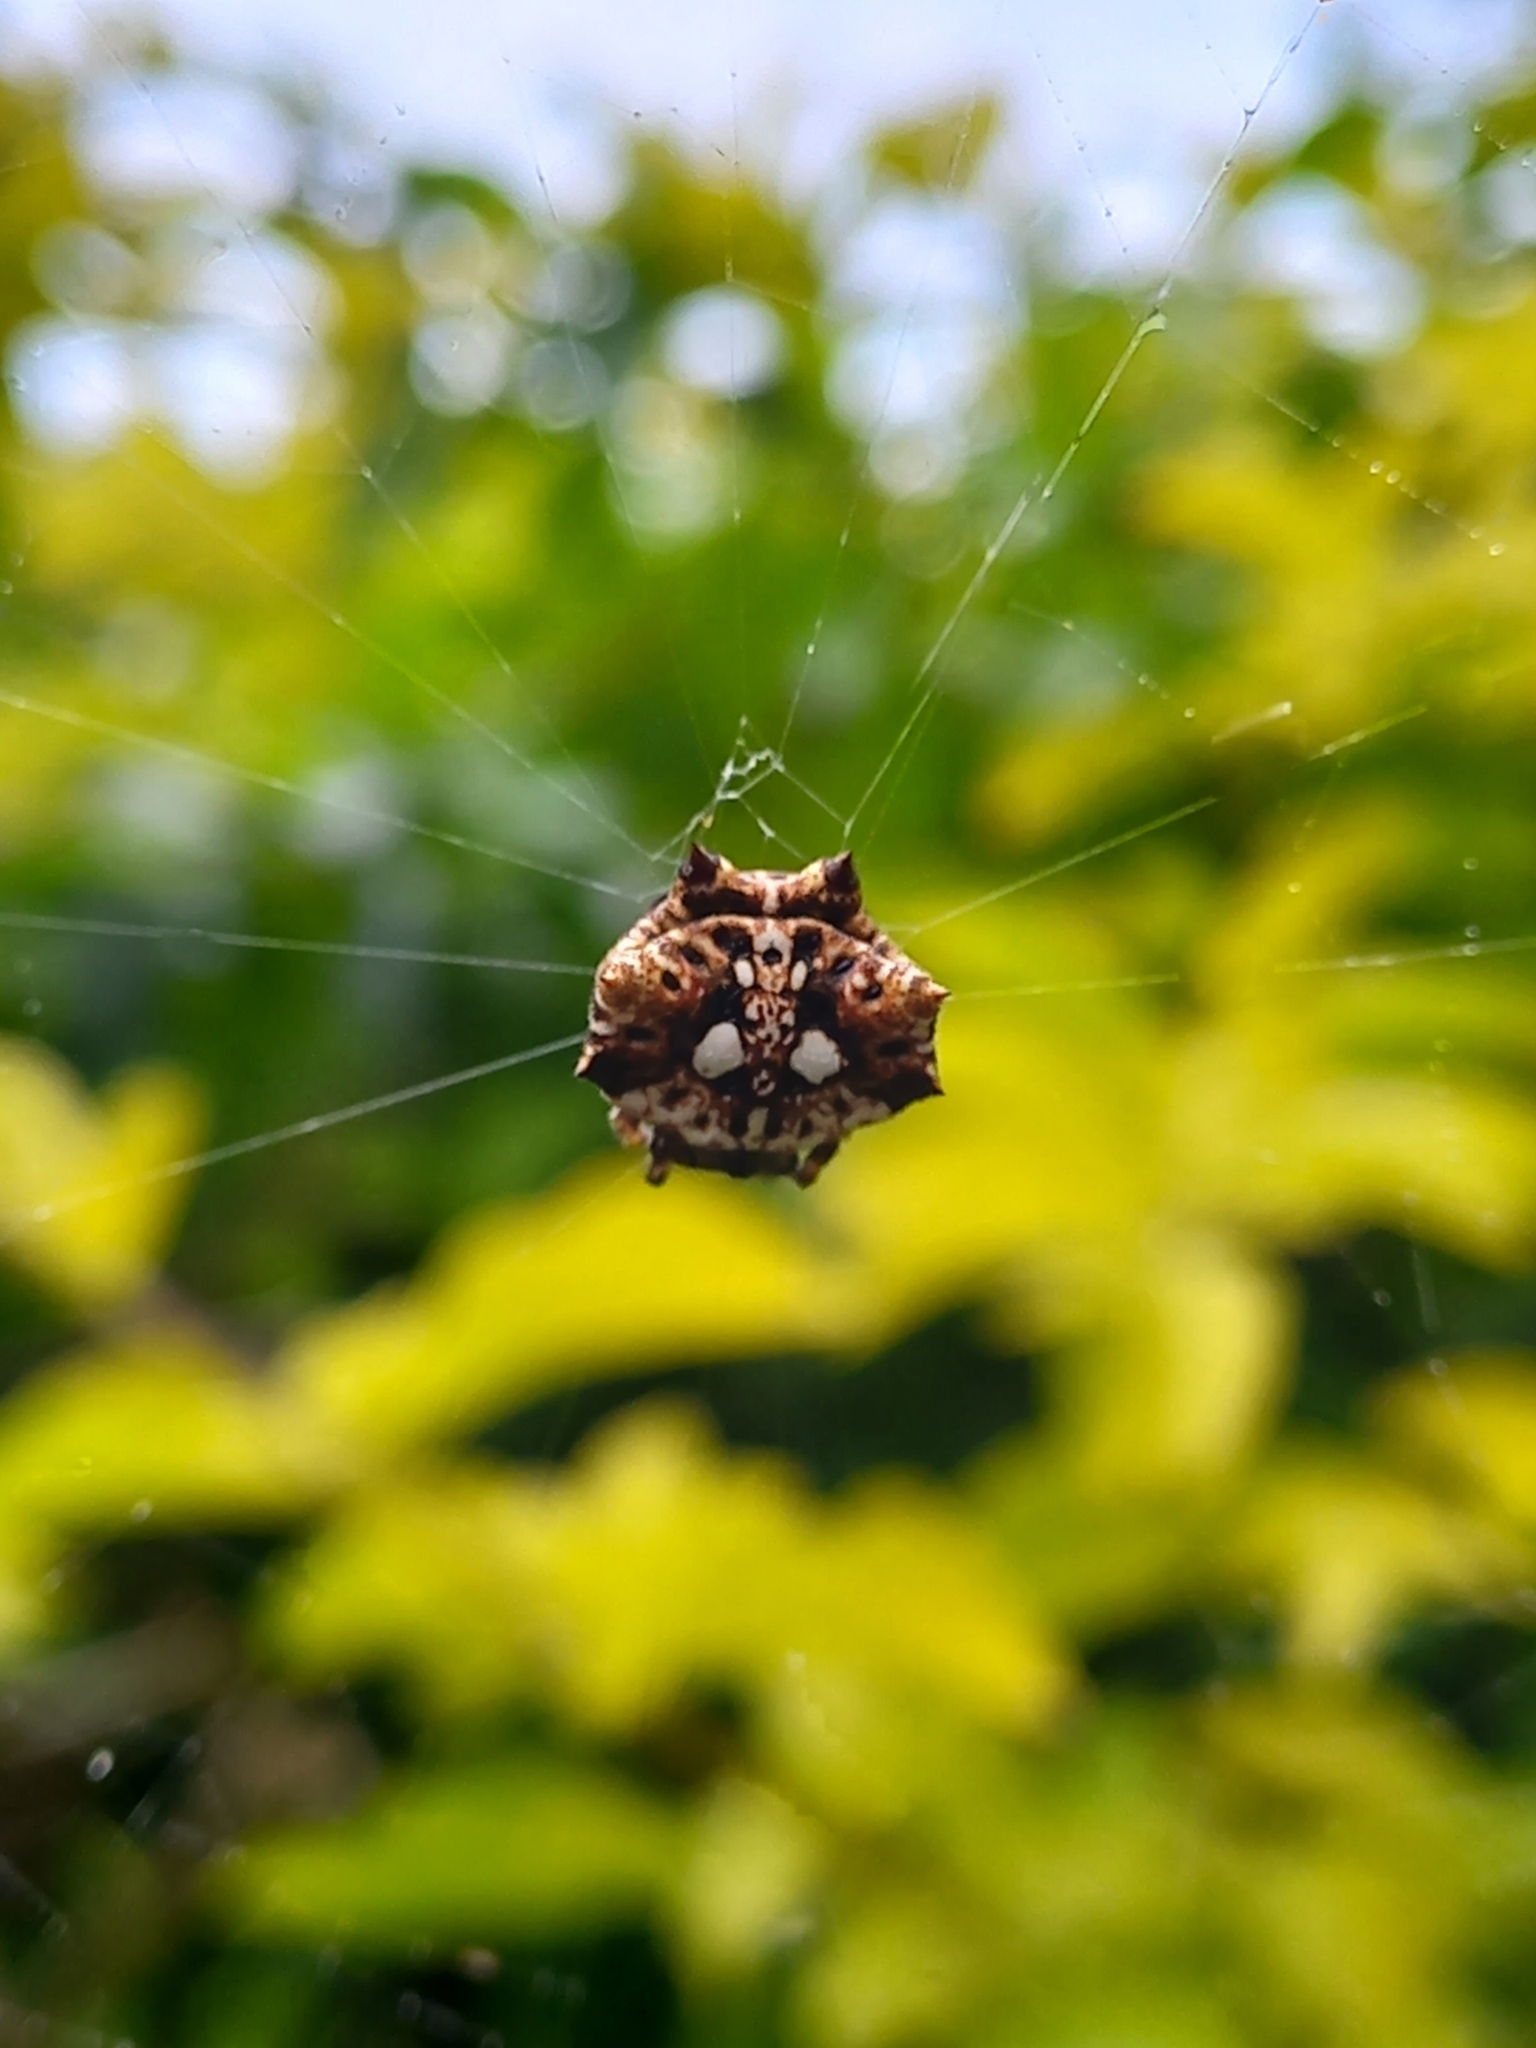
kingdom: Animalia
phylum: Arthropoda
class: Arachnida
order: Araneae
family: Araneidae
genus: Thelacantha
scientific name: Thelacantha brevispina
